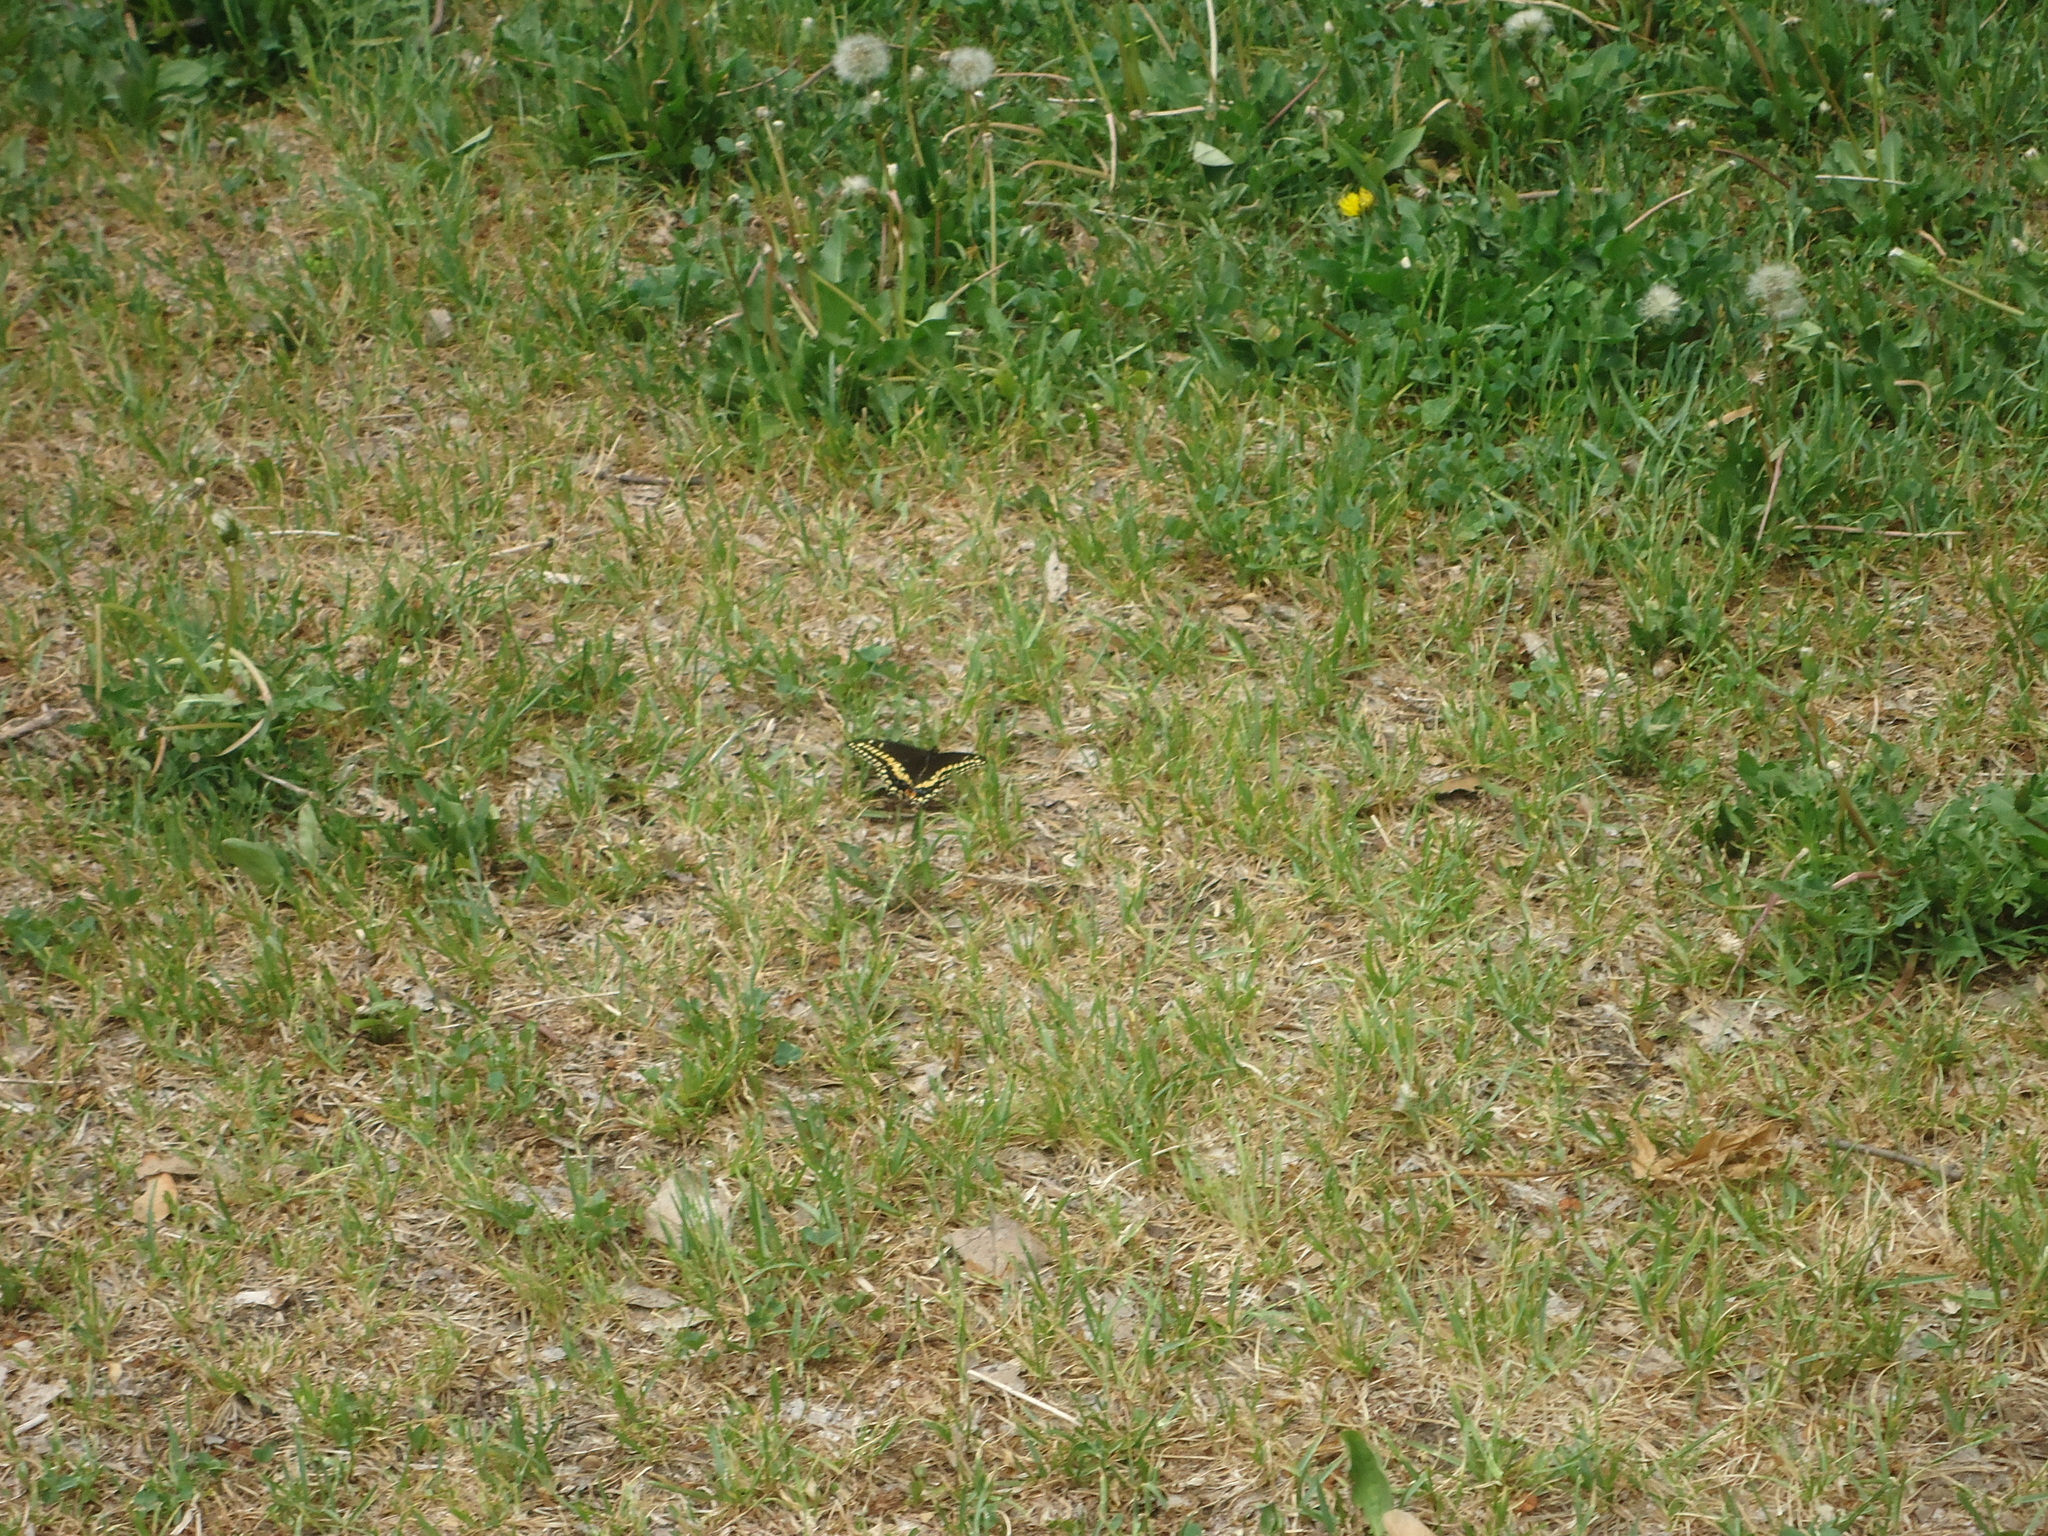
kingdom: Animalia
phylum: Arthropoda
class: Insecta
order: Lepidoptera
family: Papilionidae
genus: Papilio
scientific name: Papilio polyxenes
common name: Black swallowtail
